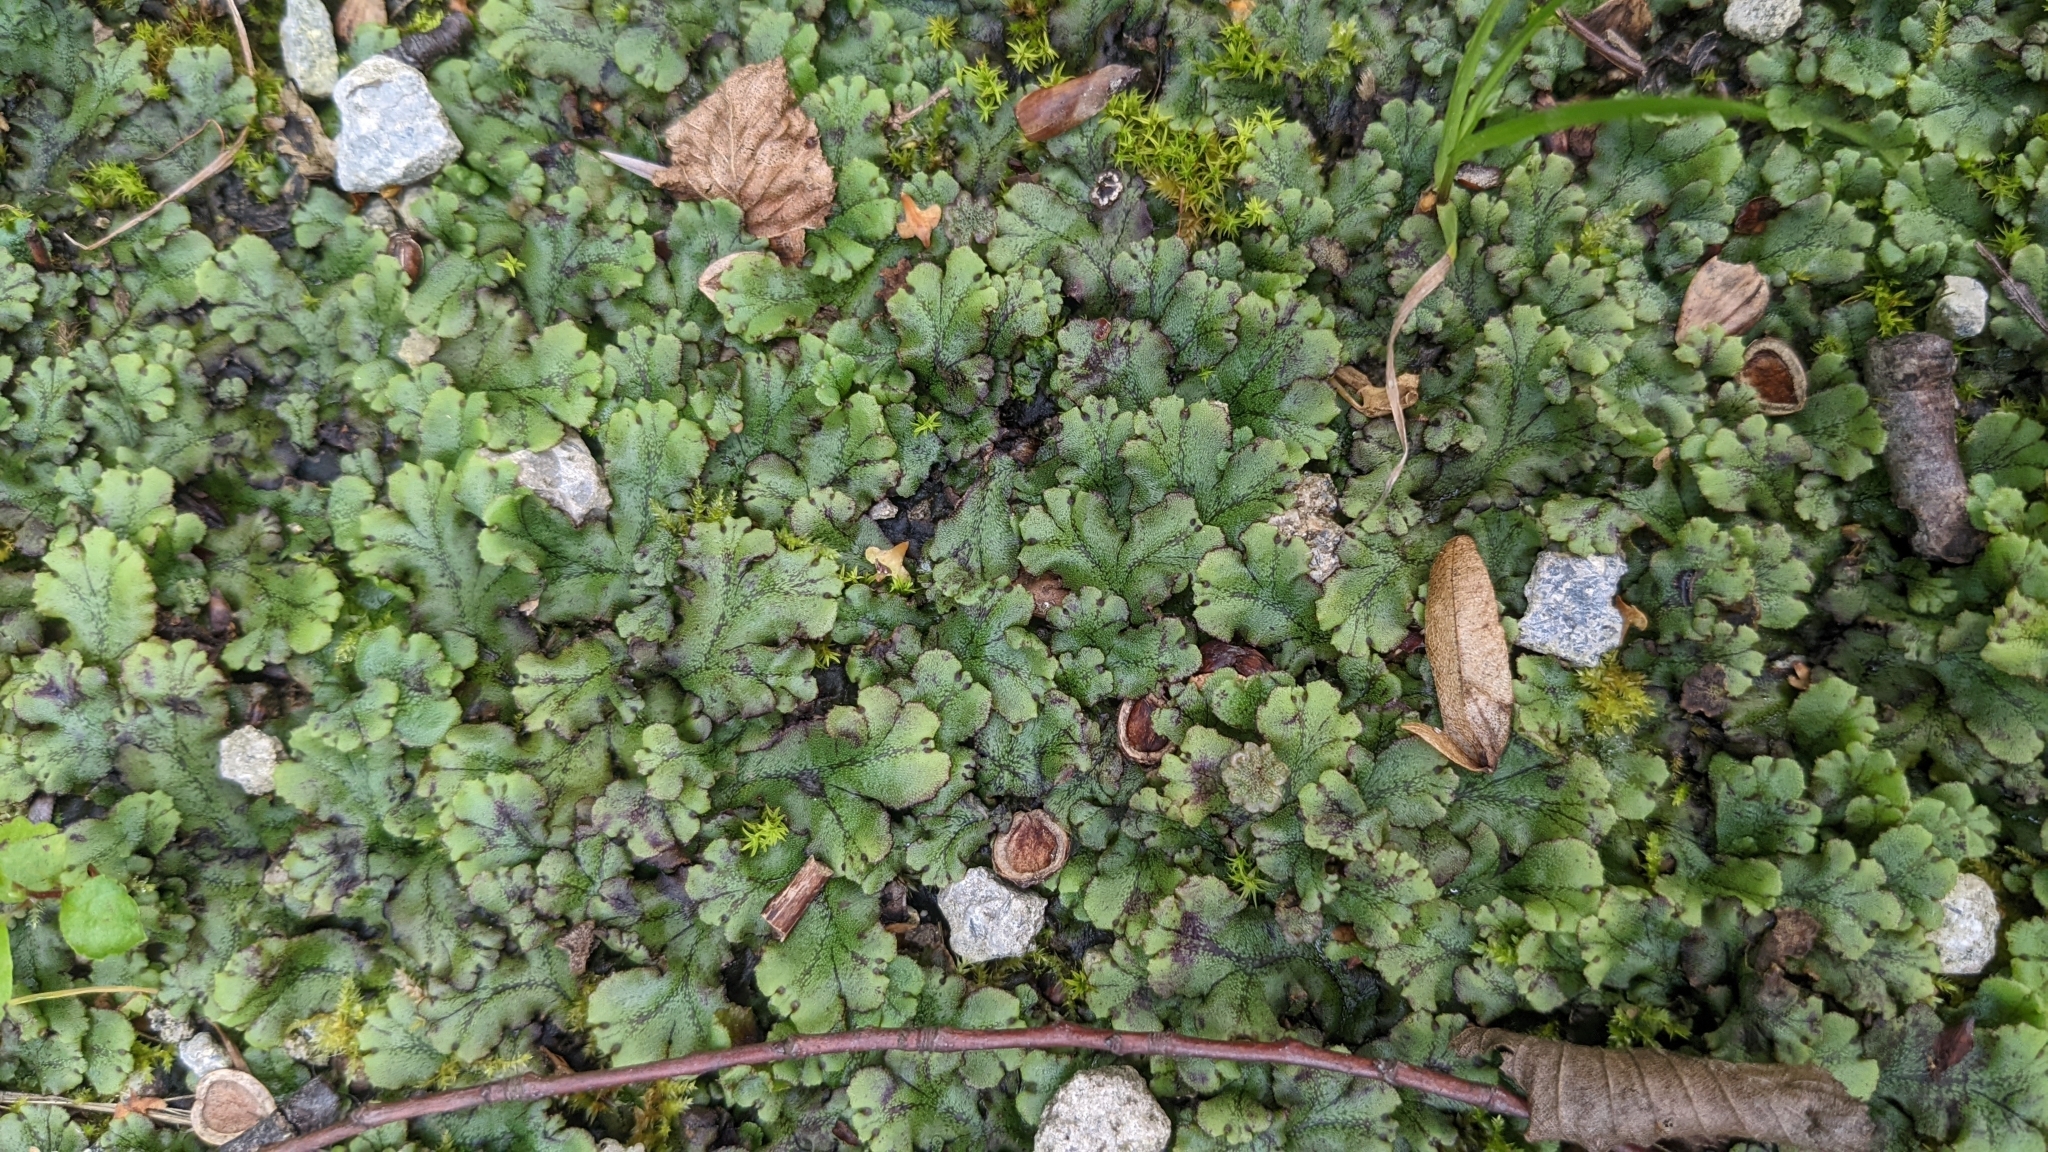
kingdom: Plantae
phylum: Marchantiophyta
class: Marchantiopsida
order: Marchantiales
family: Marchantiaceae
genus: Marchantia
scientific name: Marchantia polymorpha
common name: Common liverwort
